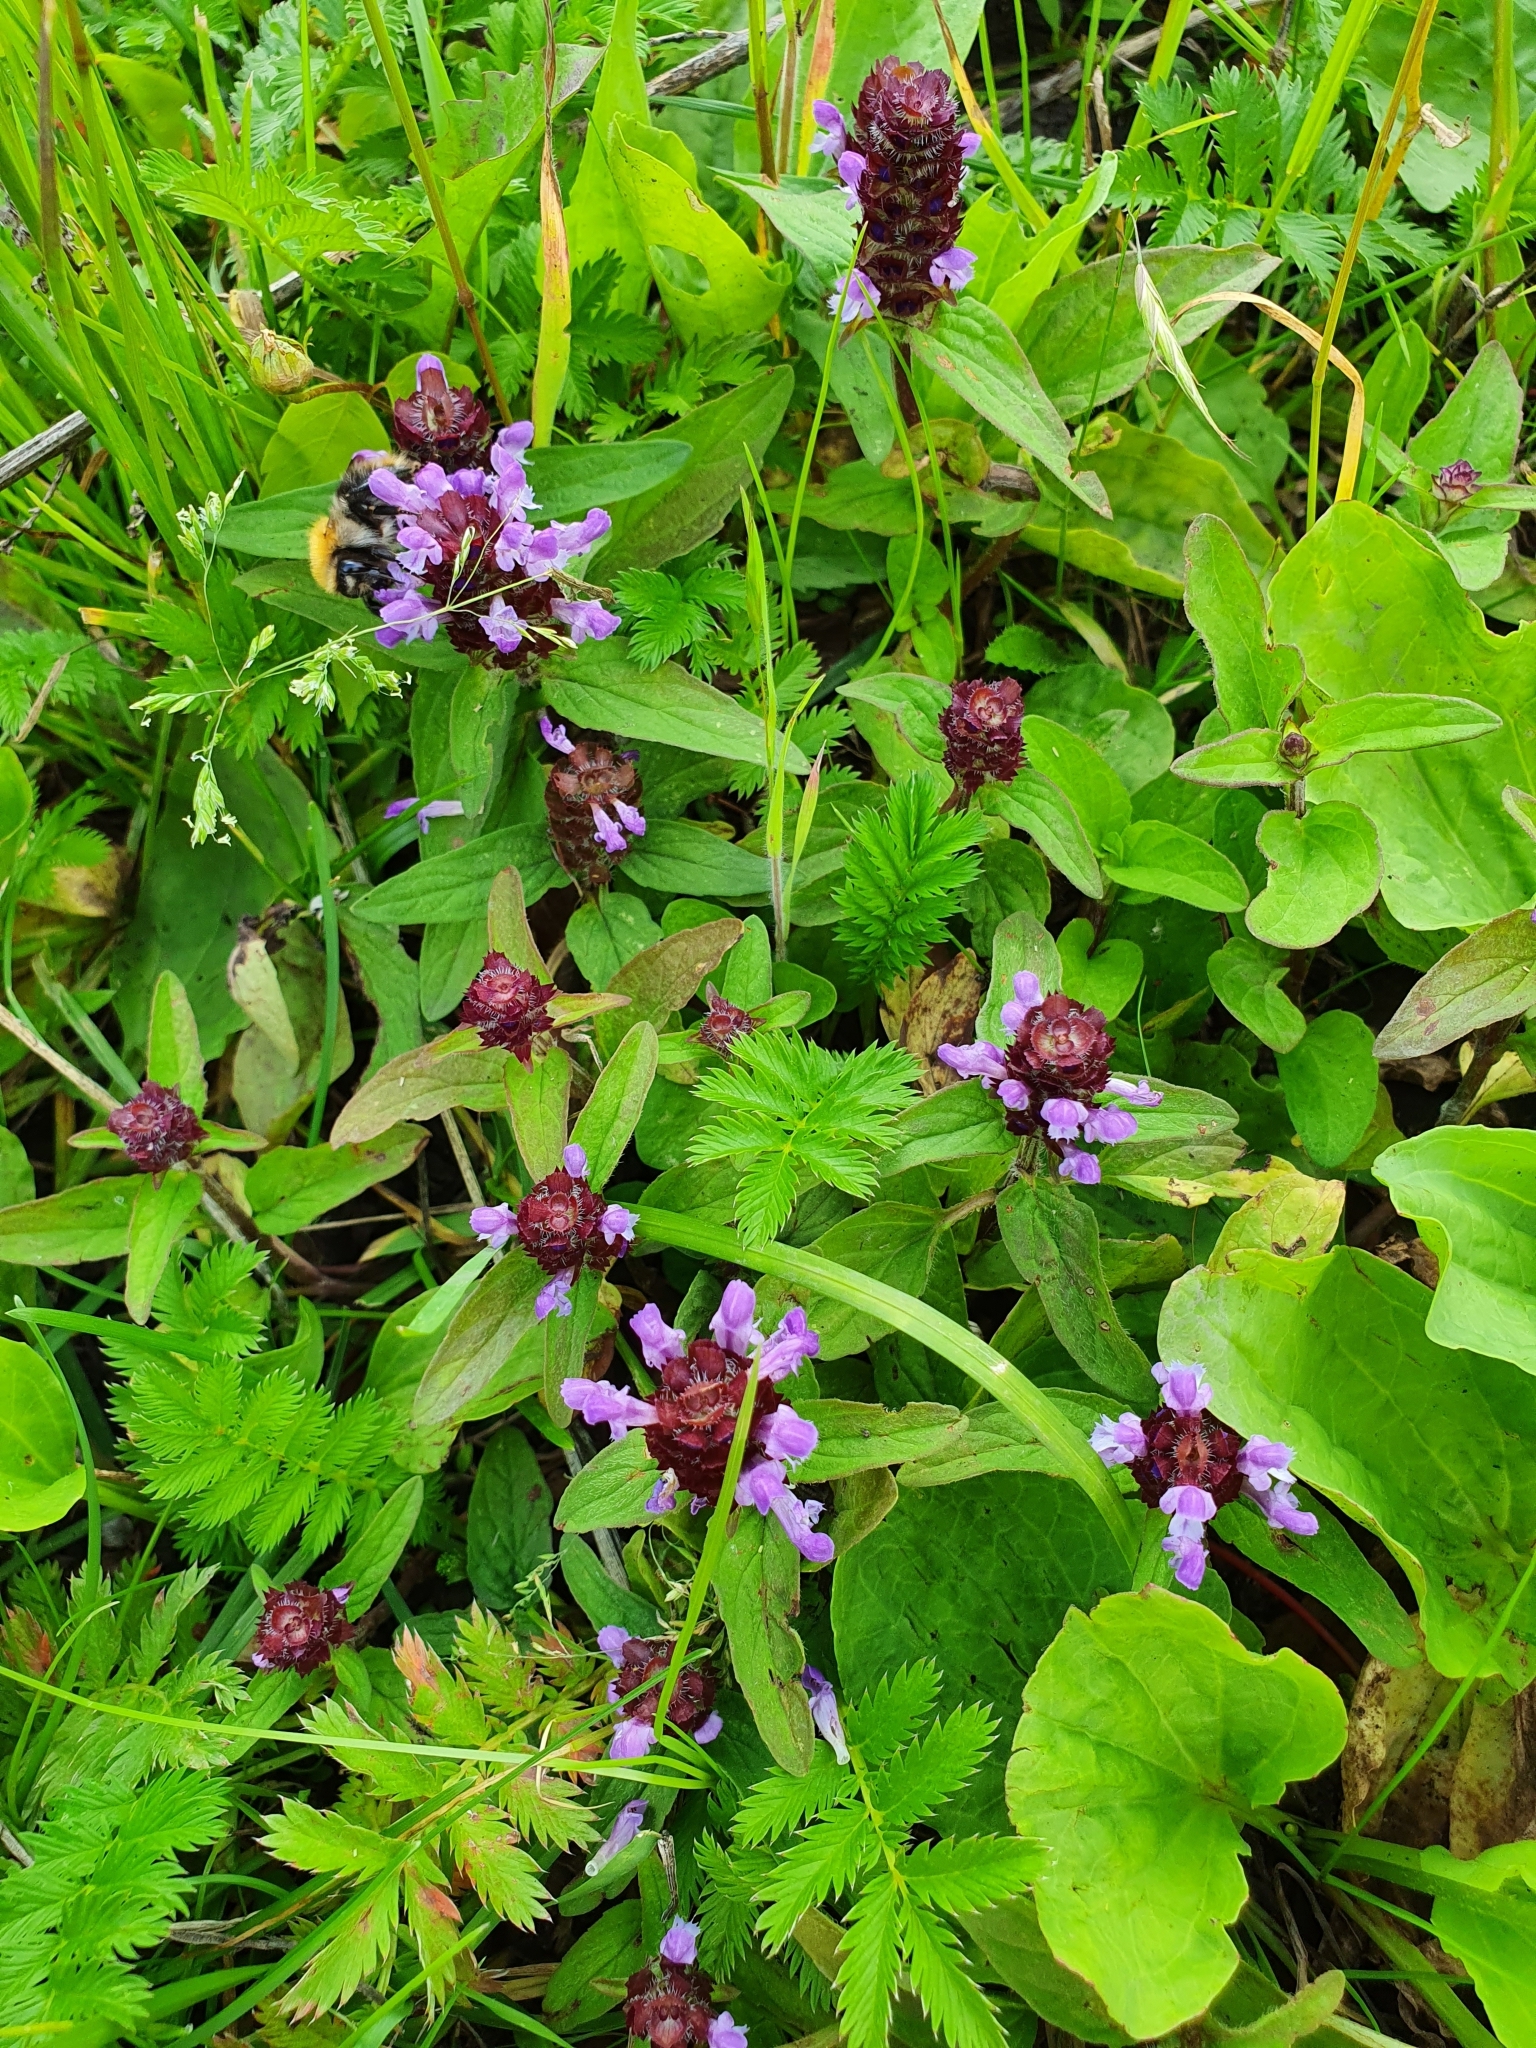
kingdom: Plantae
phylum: Tracheophyta
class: Magnoliopsida
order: Lamiales
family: Lamiaceae
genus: Prunella
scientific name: Prunella vulgaris
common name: Heal-all
